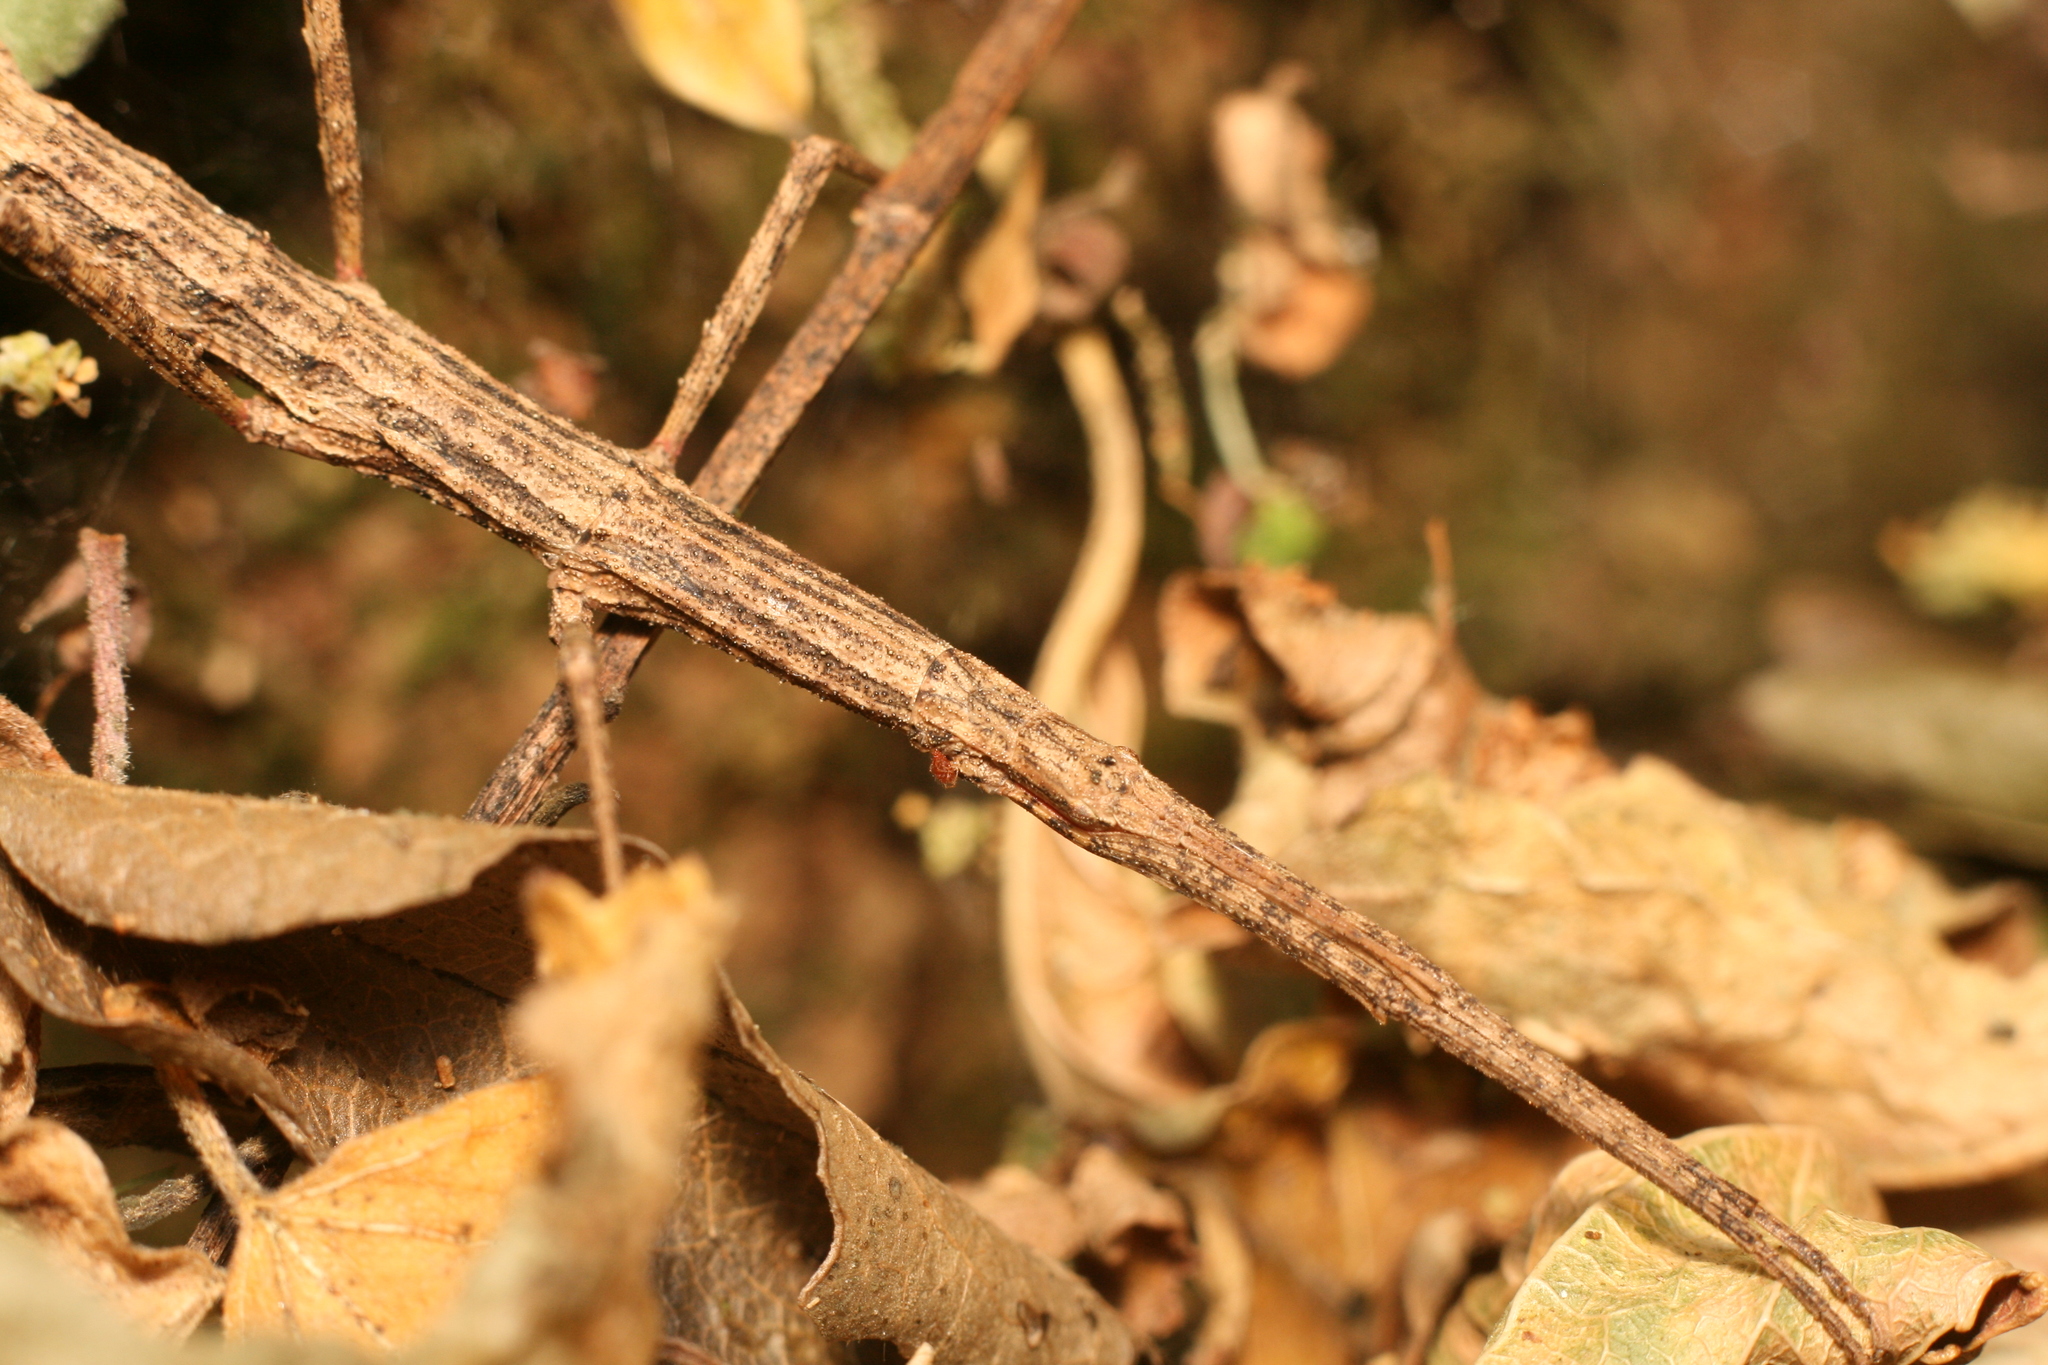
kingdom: Animalia
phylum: Arthropoda
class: Insecta
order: Phasmida
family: Phasmatidae
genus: Tectarchus
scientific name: Tectarchus salebrosus
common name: Lesser rough-skinned stick insect
